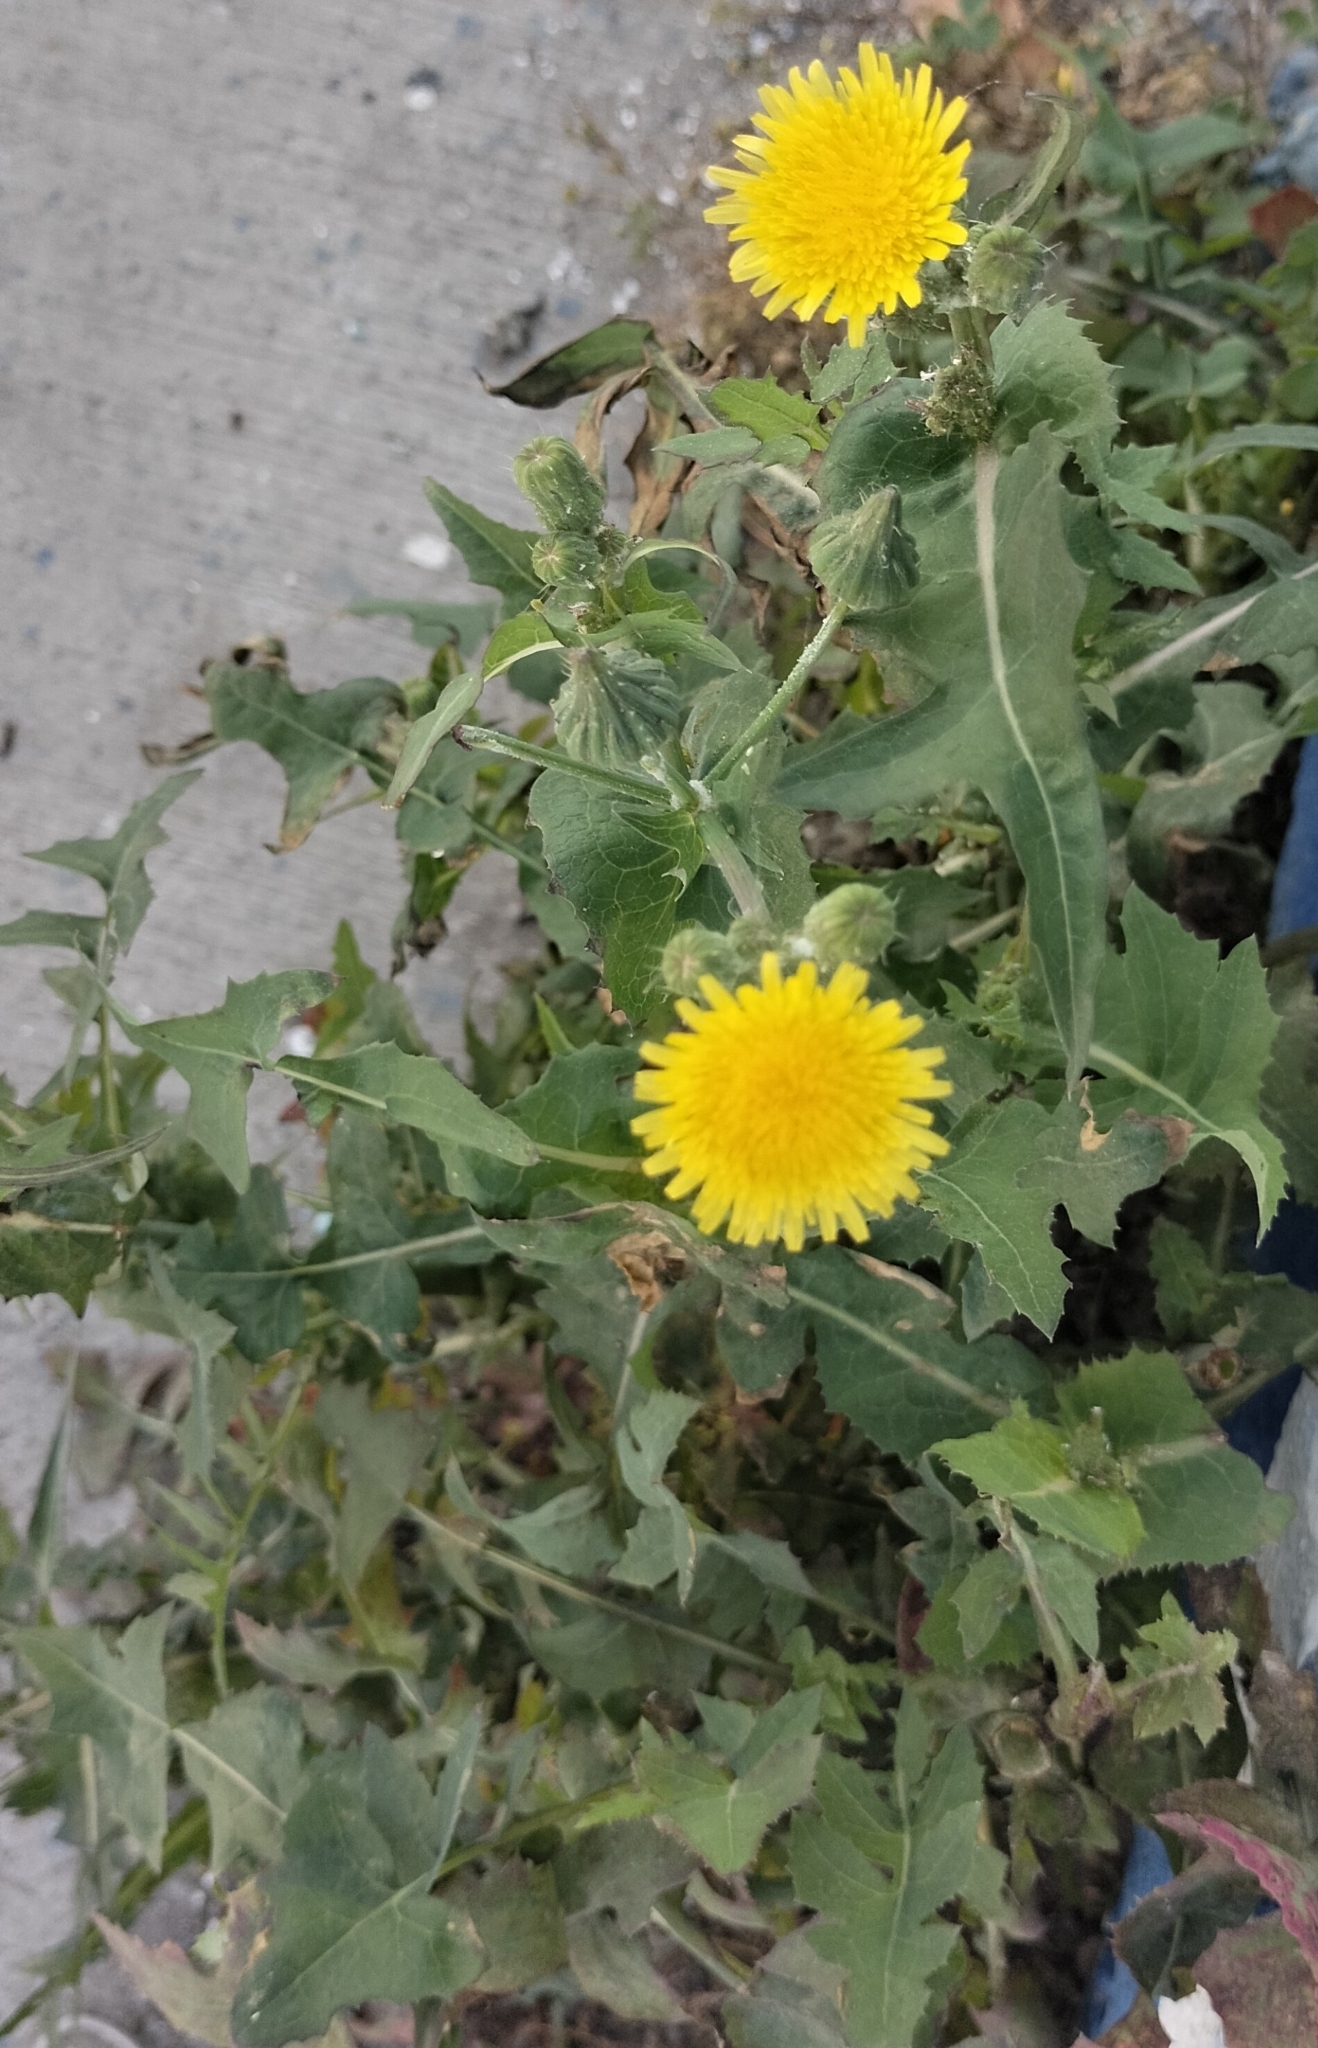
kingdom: Plantae
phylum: Tracheophyta
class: Magnoliopsida
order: Asterales
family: Asteraceae
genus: Taraxacum
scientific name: Taraxacum officinale
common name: Common dandelion
